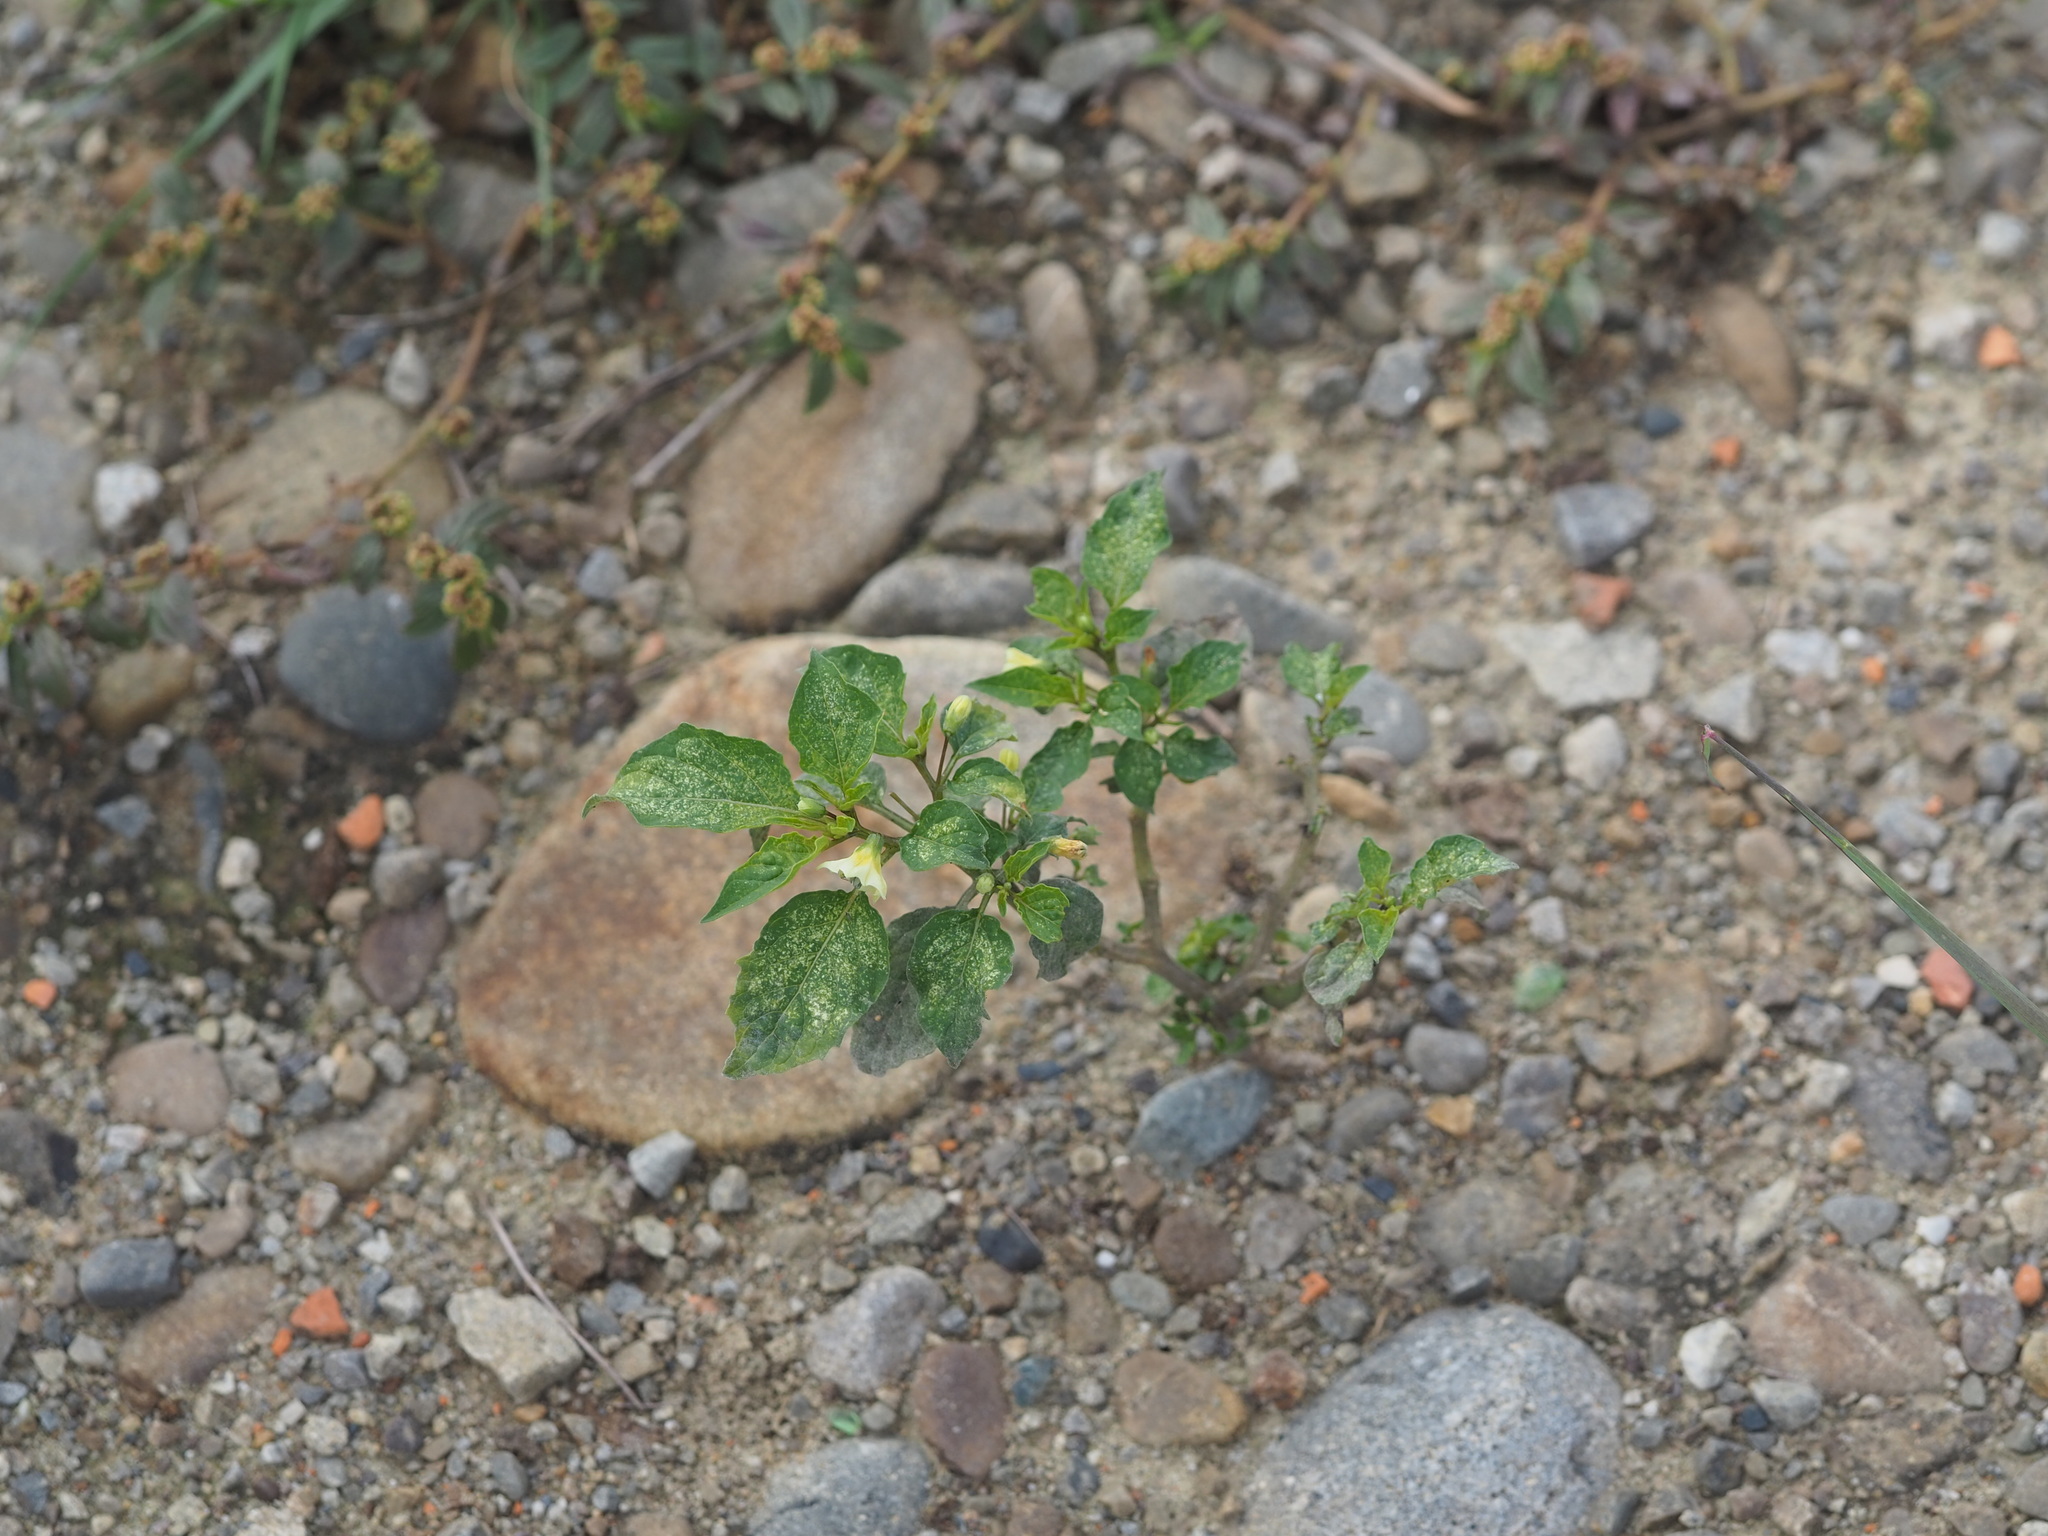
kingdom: Plantae
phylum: Tracheophyta
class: Magnoliopsida
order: Solanales
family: Solanaceae
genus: Physalis
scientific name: Physalis angulata
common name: Angular winter-cherry
